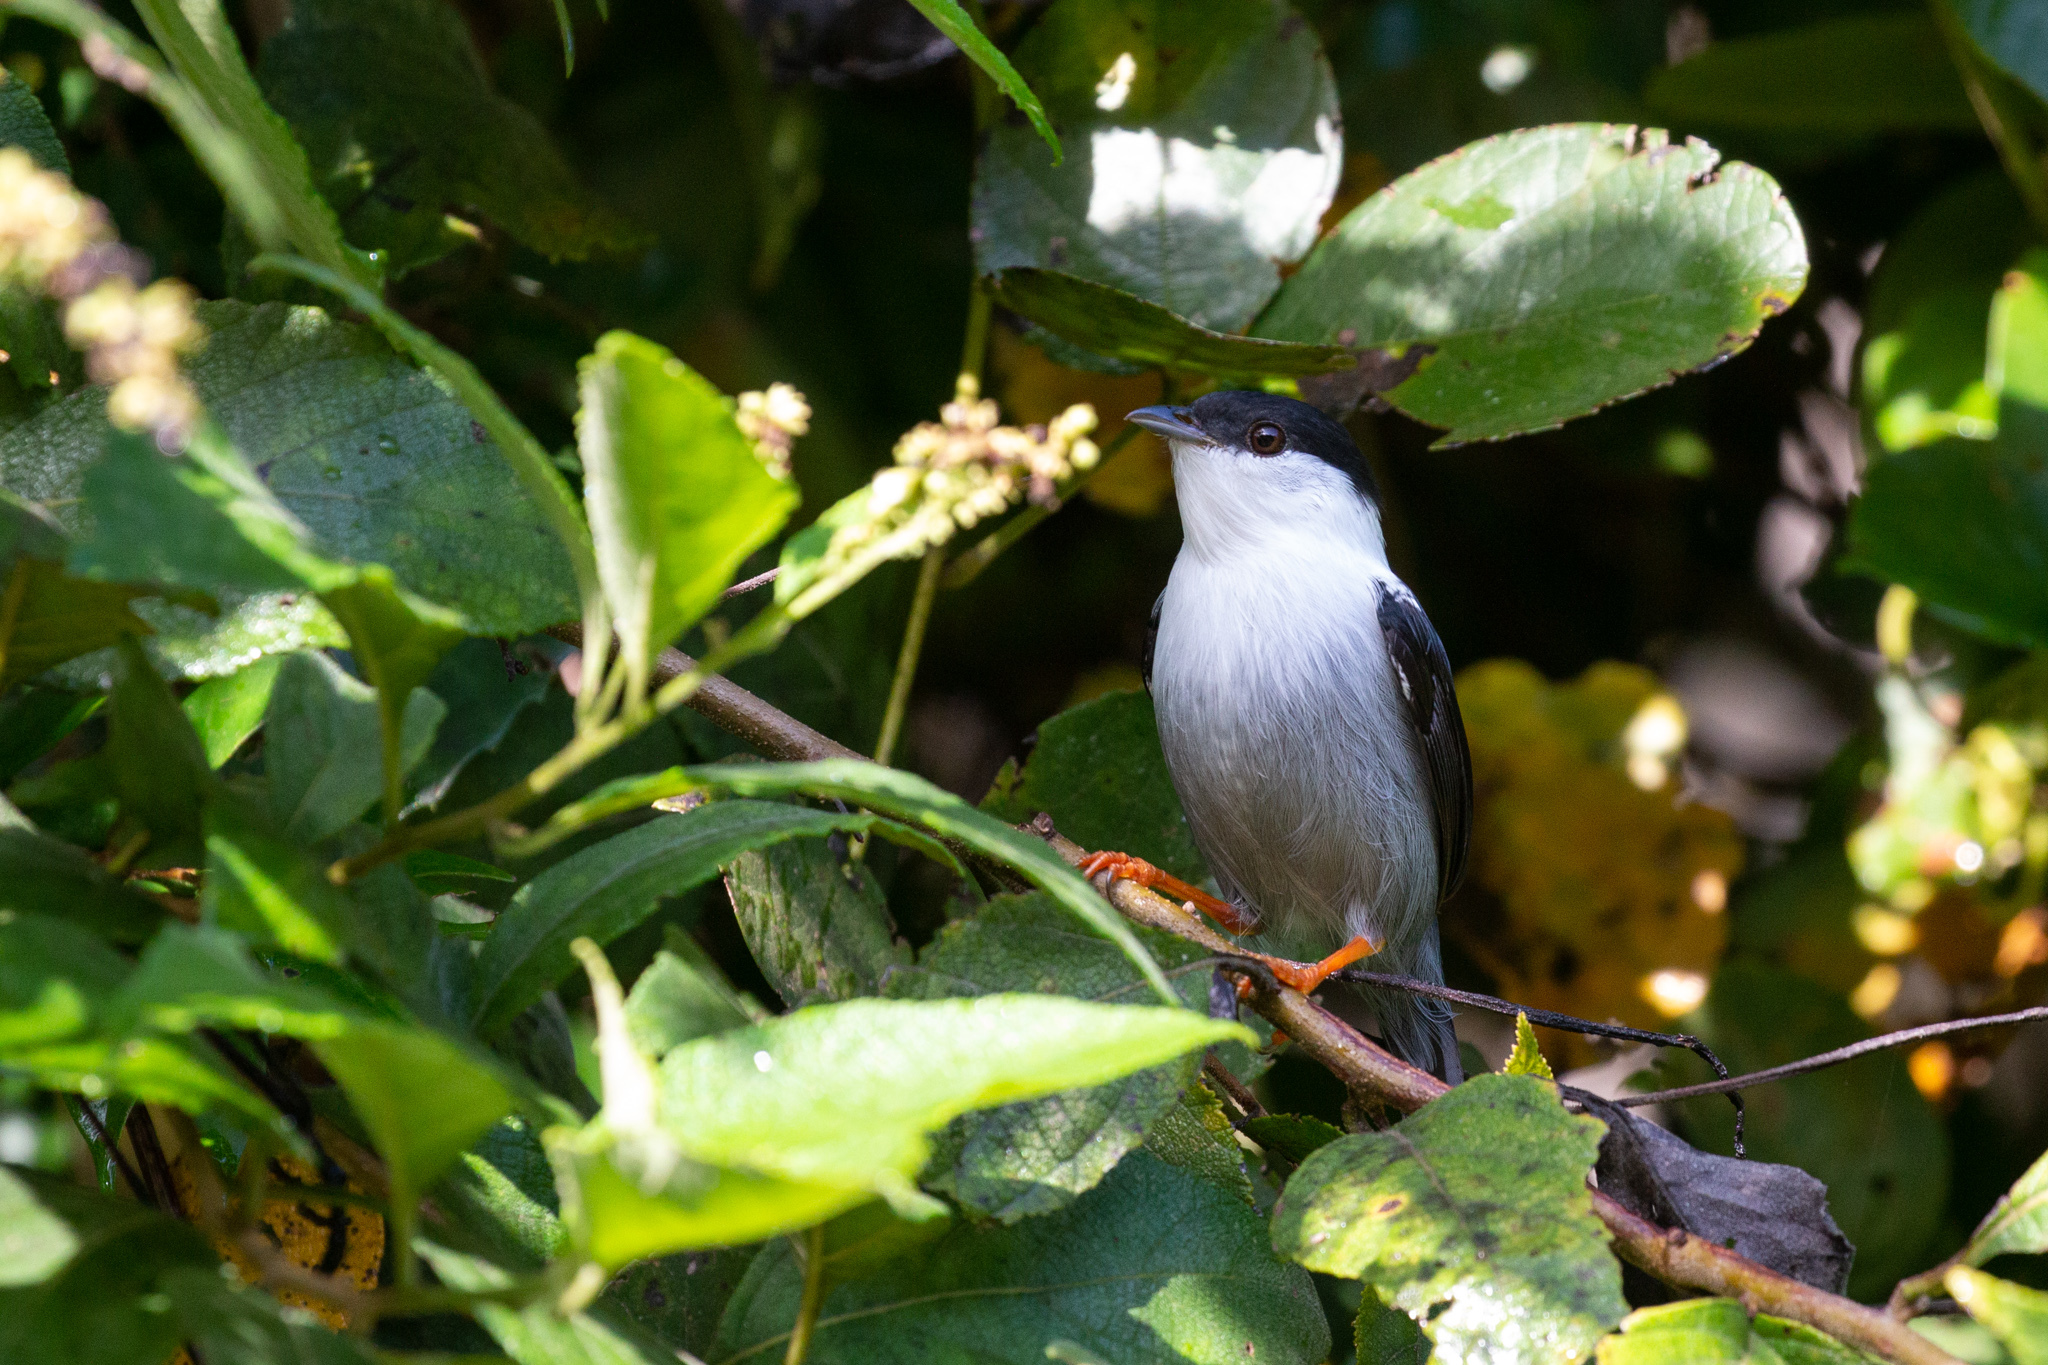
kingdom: Animalia
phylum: Chordata
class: Aves
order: Passeriformes
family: Pipridae
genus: Manacus
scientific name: Manacus manacus
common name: White-bearded manakin
